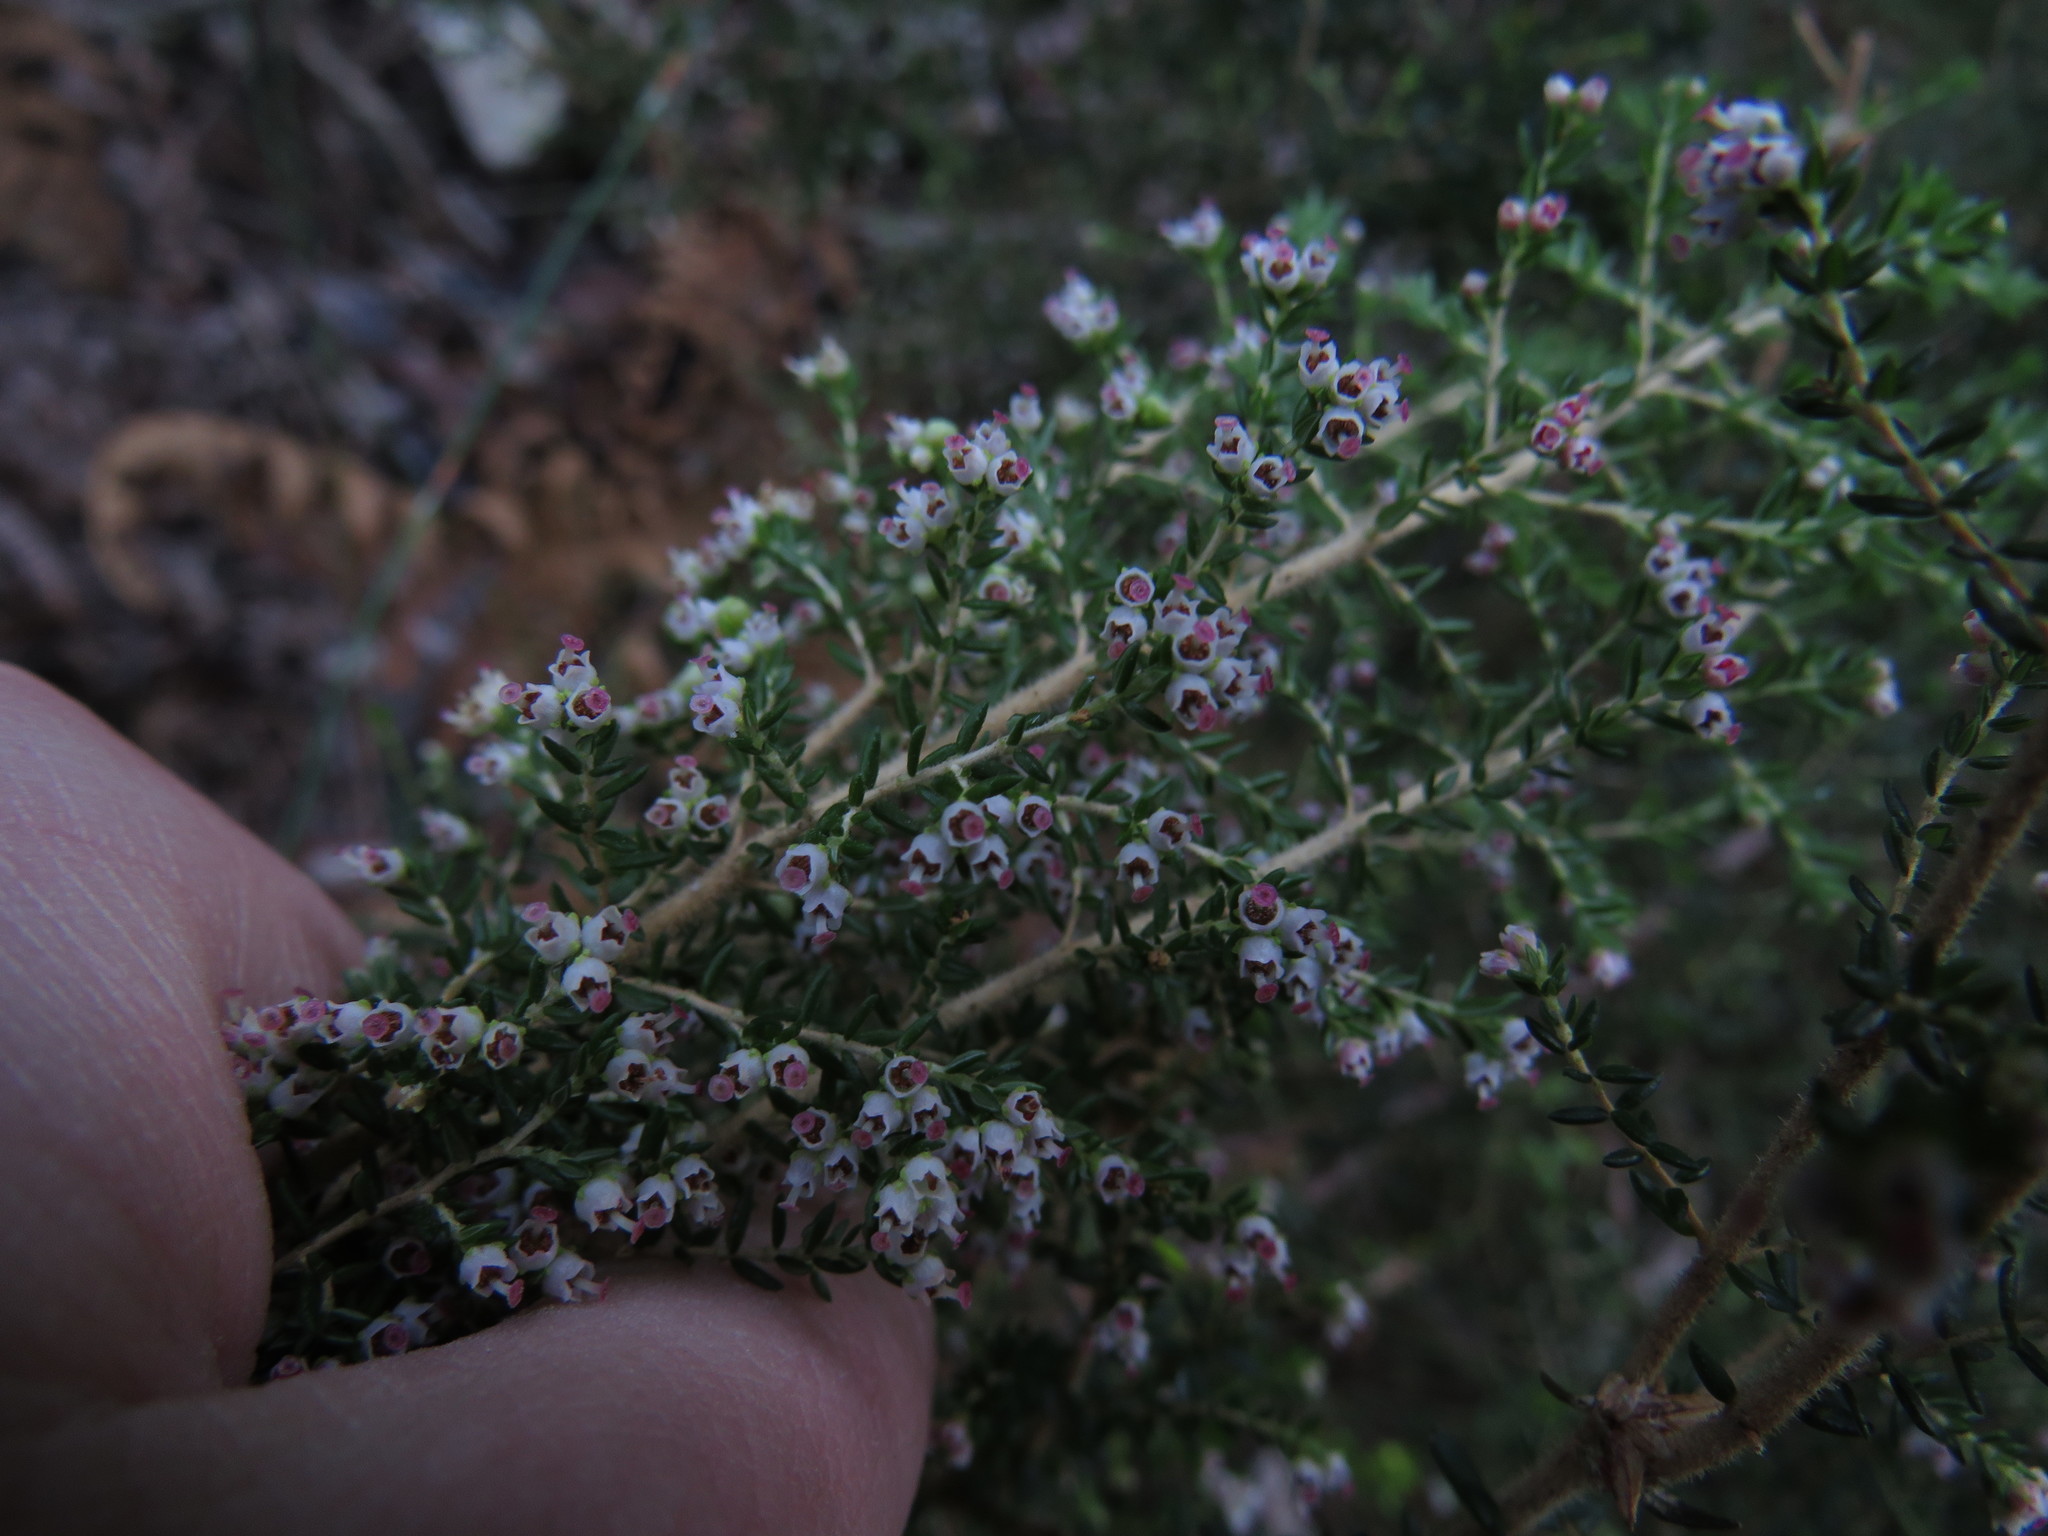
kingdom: Plantae
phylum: Tracheophyta
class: Magnoliopsida
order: Ericales
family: Ericaceae
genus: Erica
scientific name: Erica hispidula
